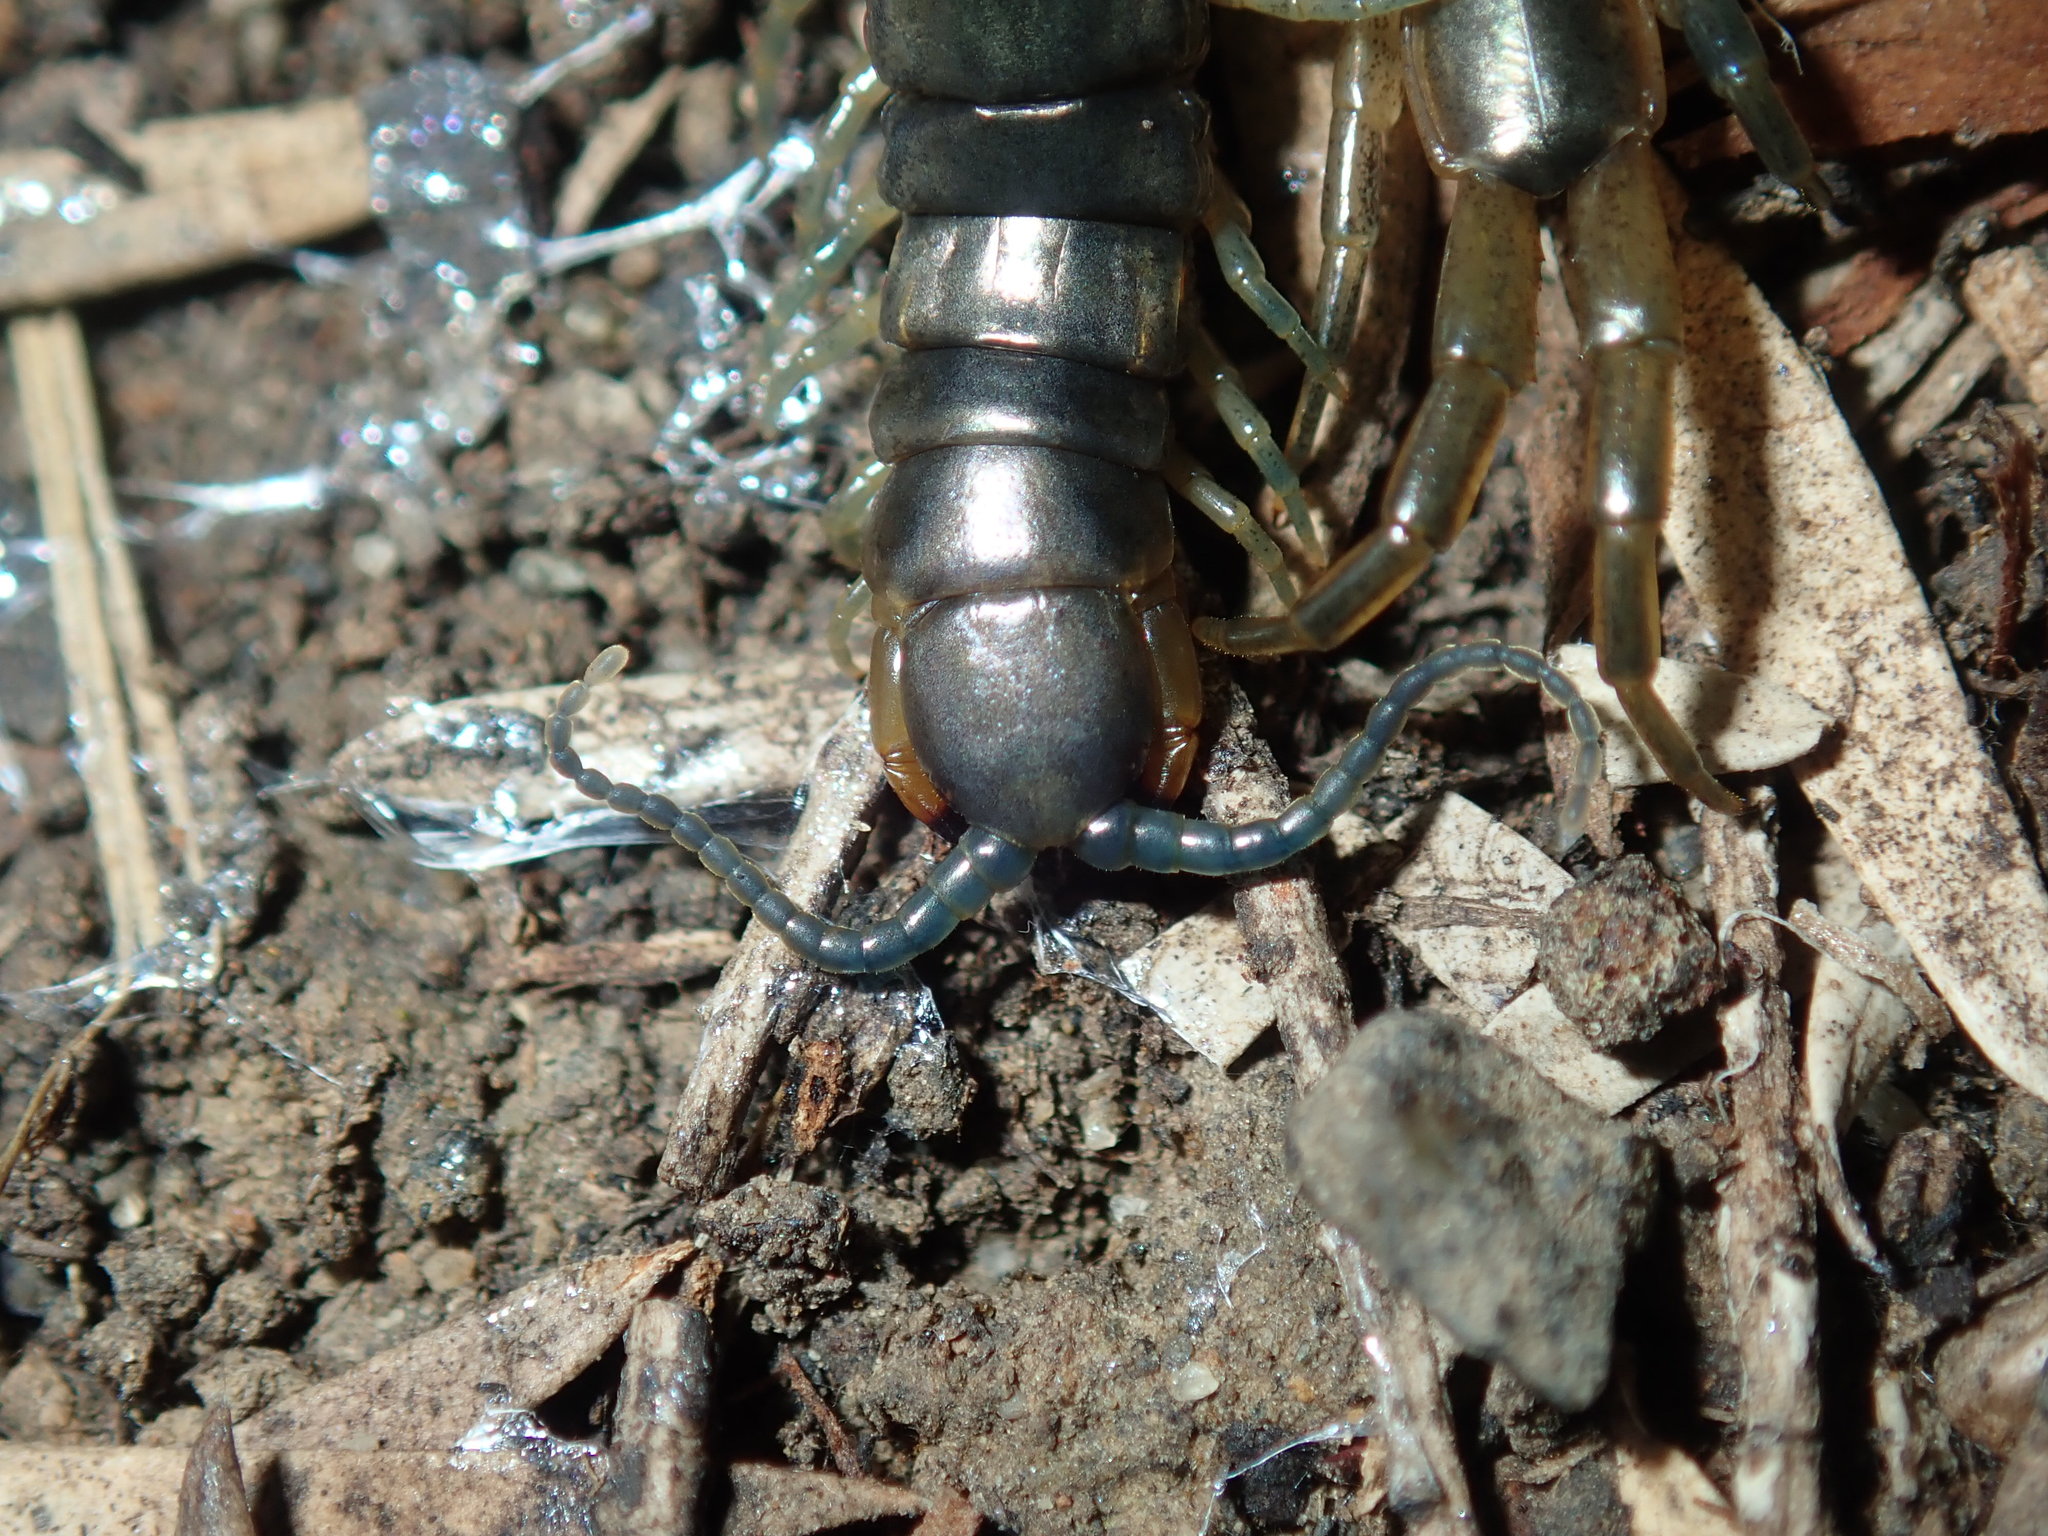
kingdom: Animalia
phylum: Arthropoda
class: Chilopoda
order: Scolopendromorpha
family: Scolopendridae
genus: Cormocephalus
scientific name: Cormocephalus esulcatus
